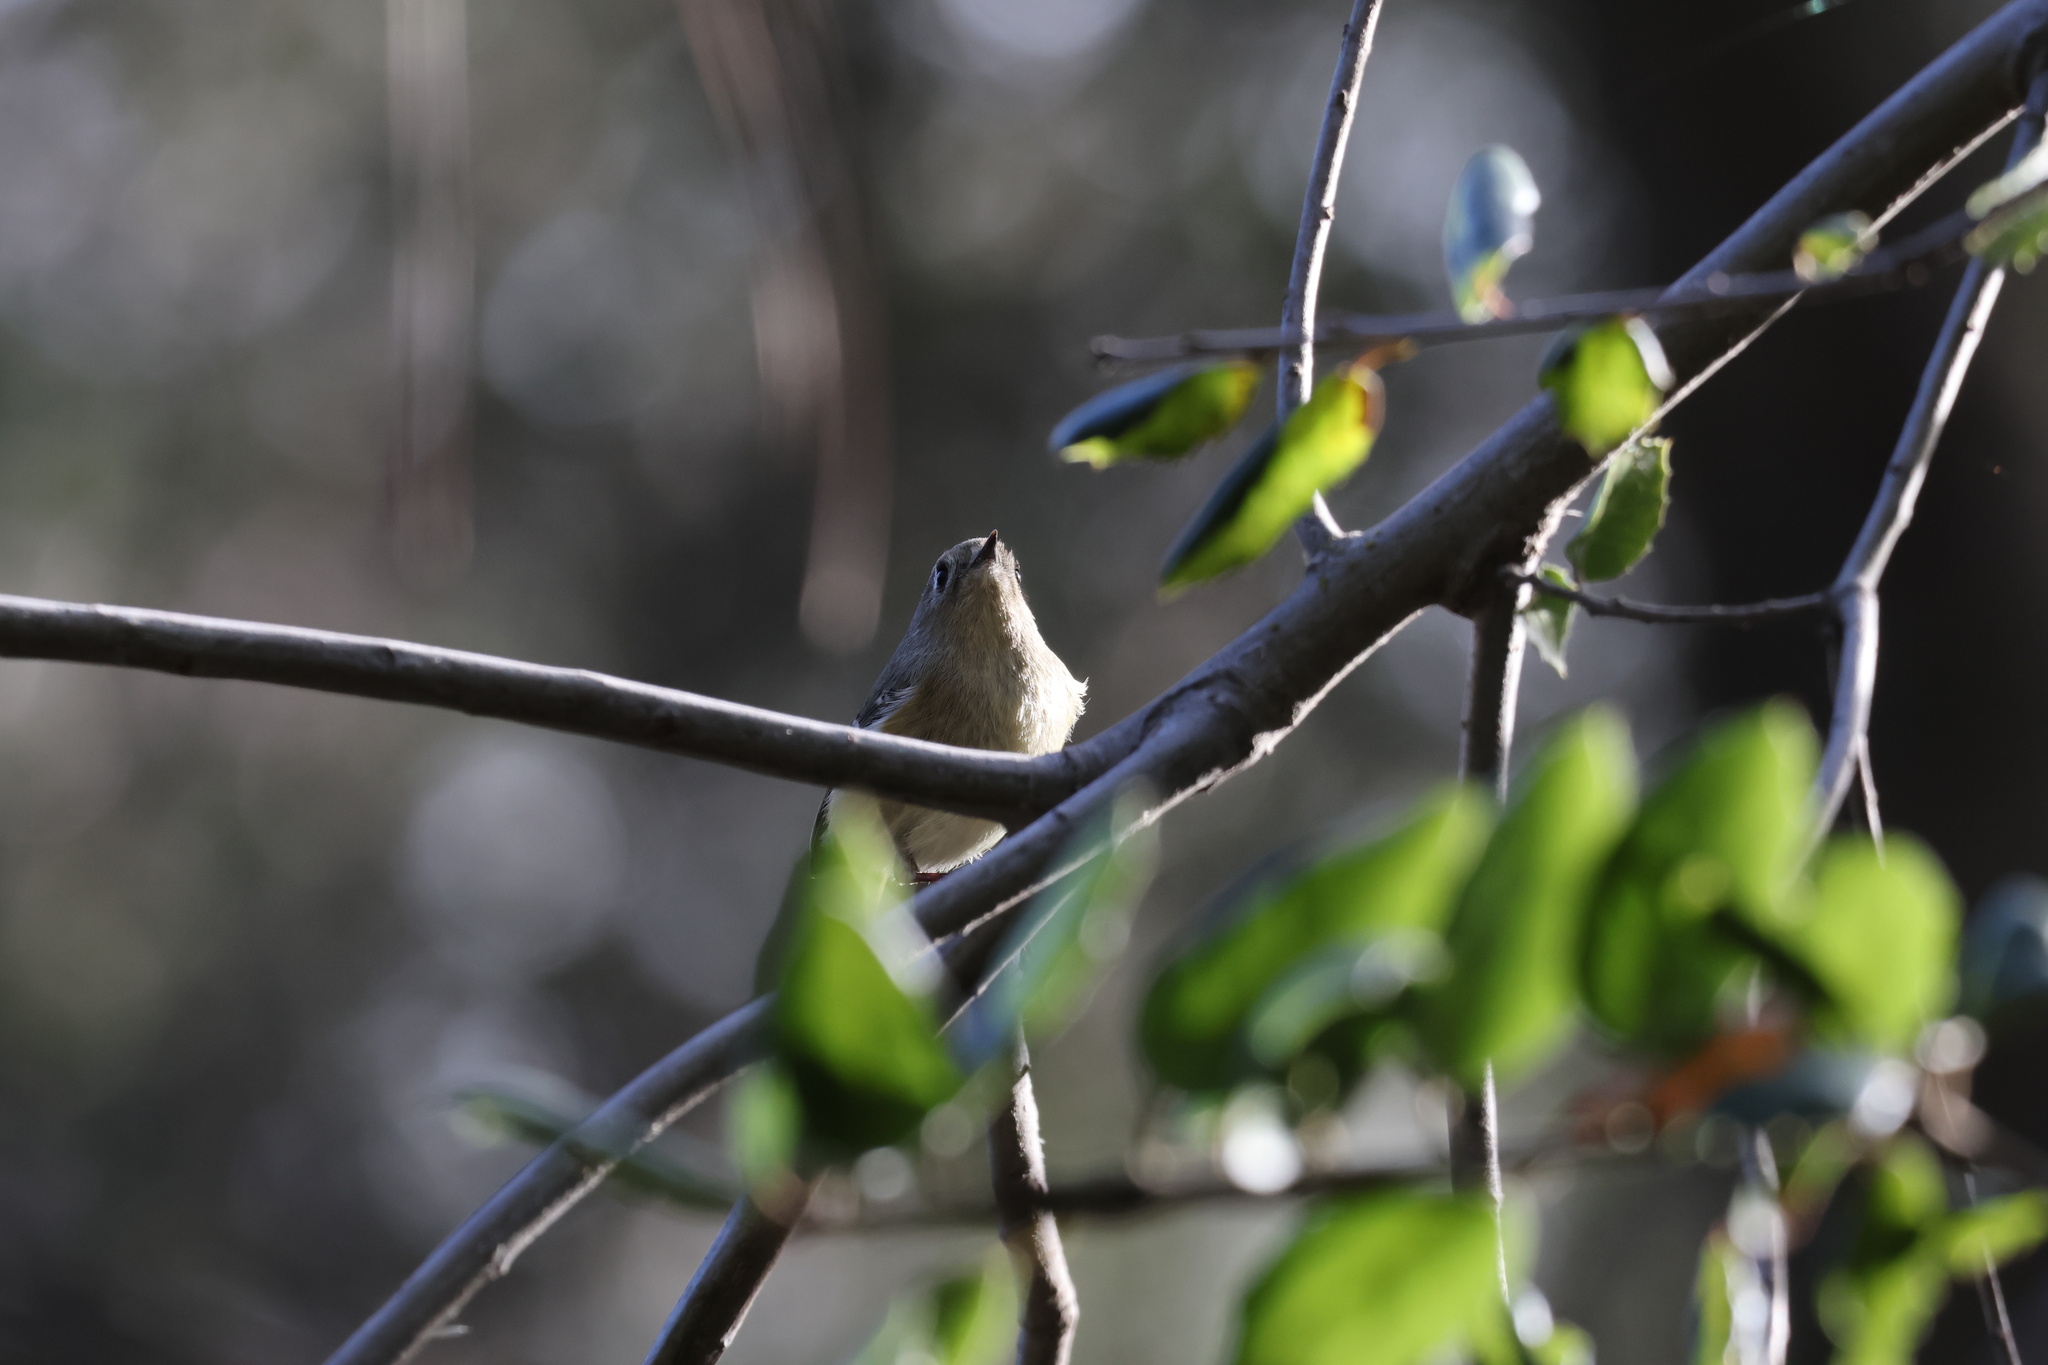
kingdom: Animalia
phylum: Chordata
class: Aves
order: Passeriformes
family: Regulidae
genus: Regulus
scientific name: Regulus calendula
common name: Ruby-crowned kinglet
